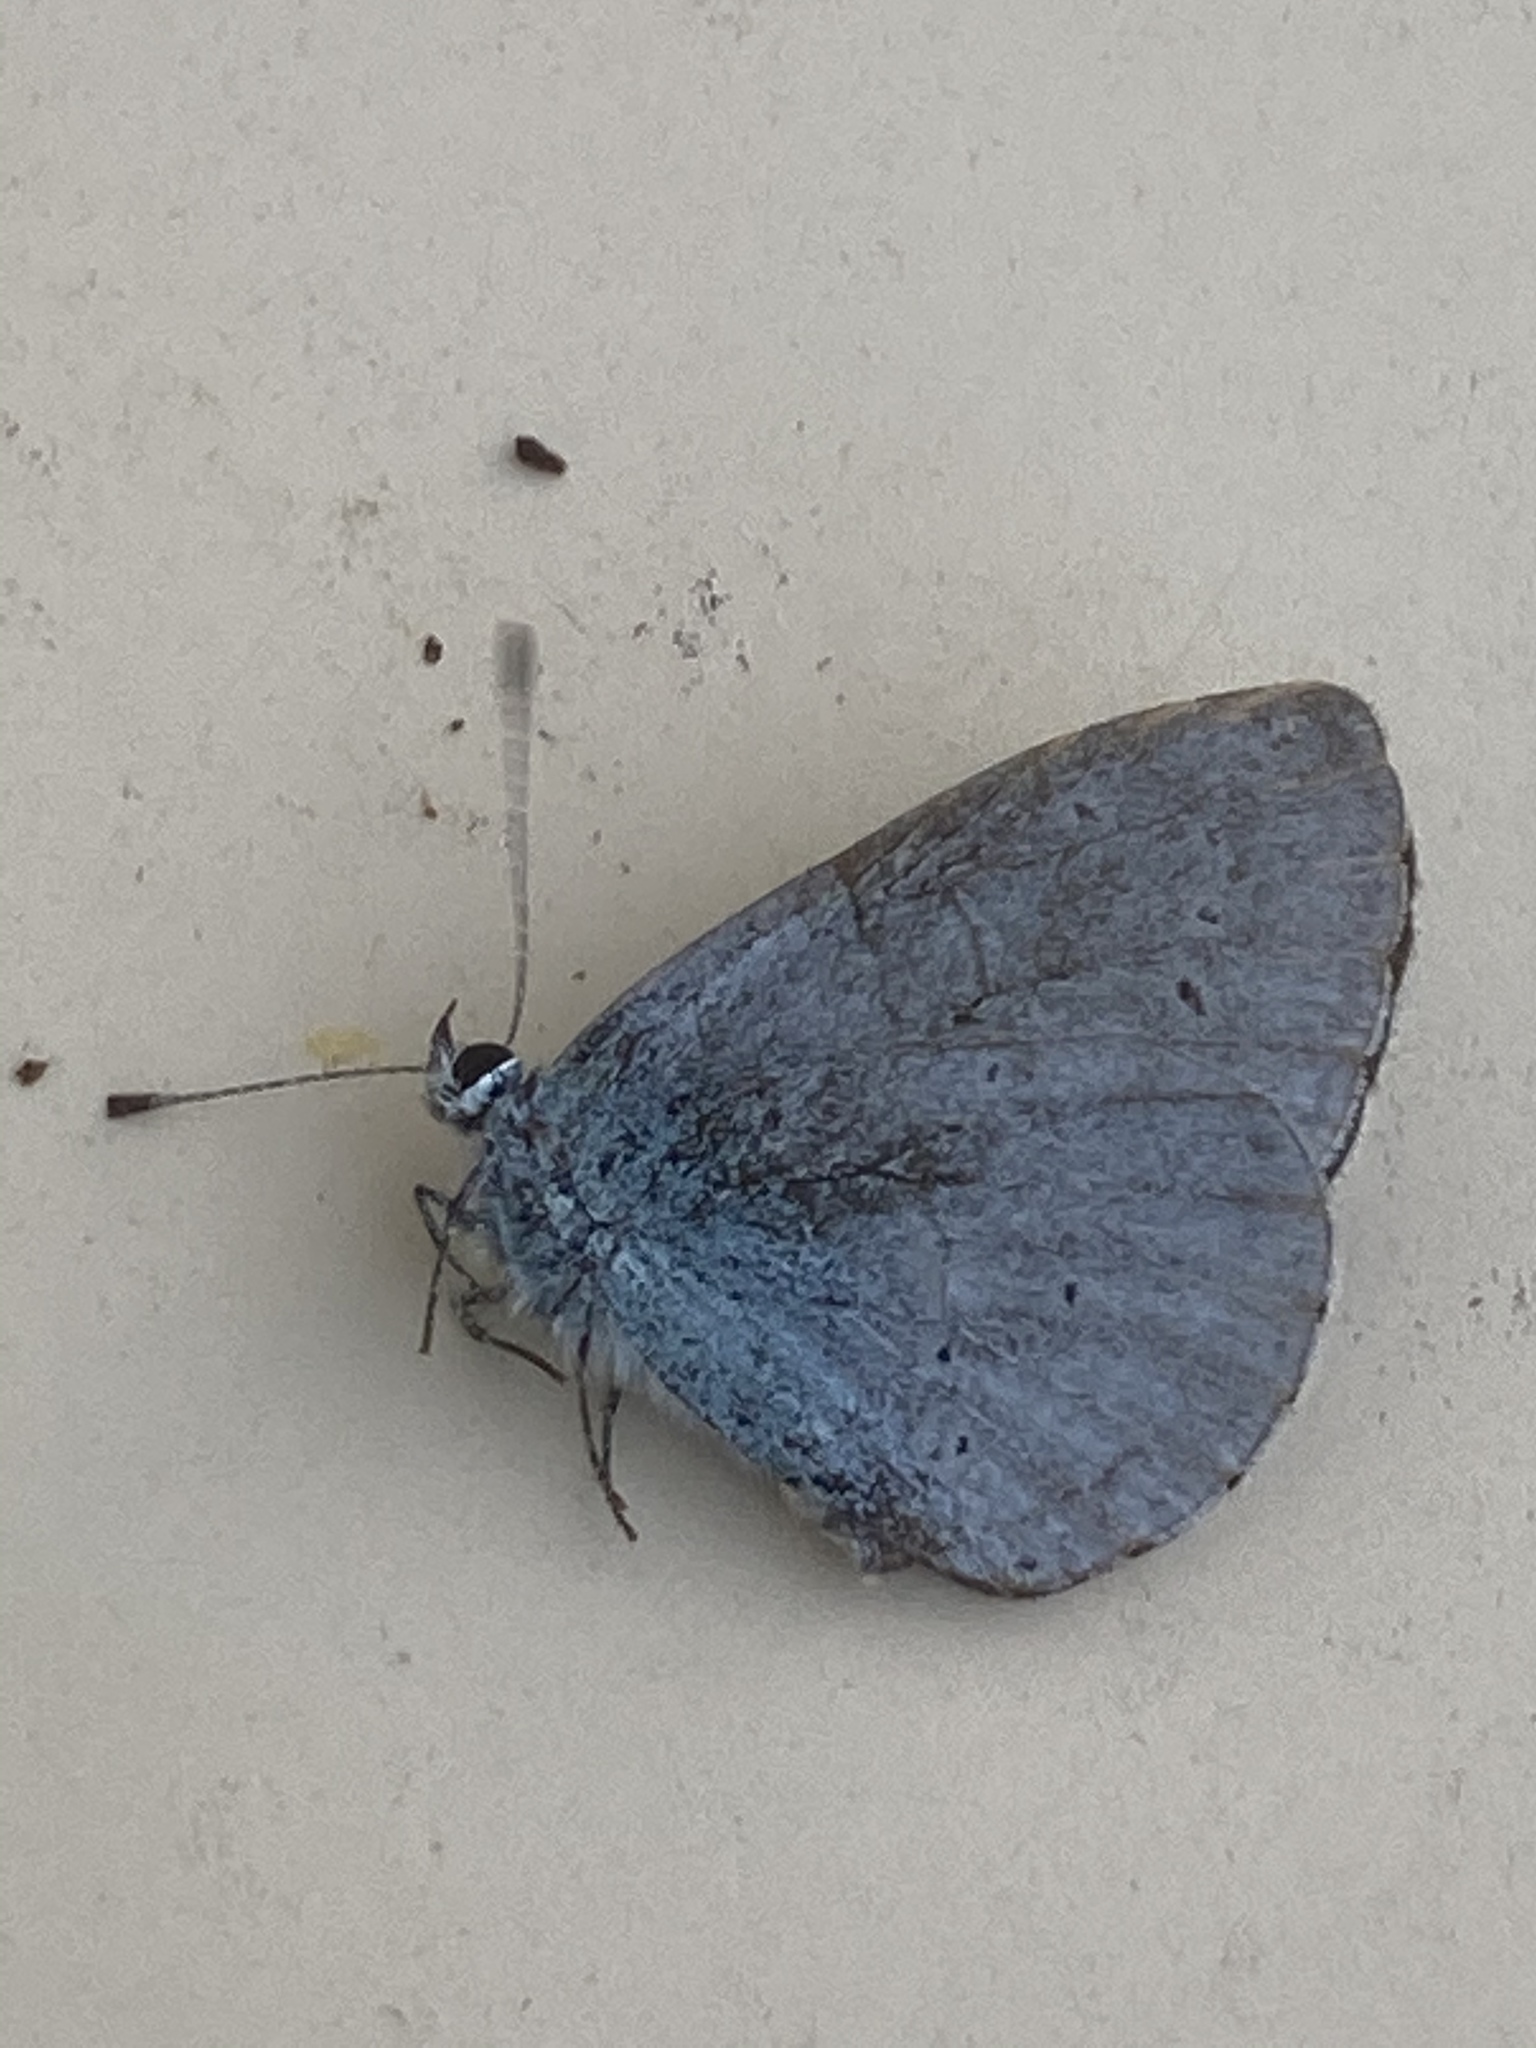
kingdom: Animalia
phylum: Arthropoda
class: Insecta
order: Lepidoptera
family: Lycaenidae
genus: Celastrina
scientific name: Celastrina argiolus
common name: Holly blue
